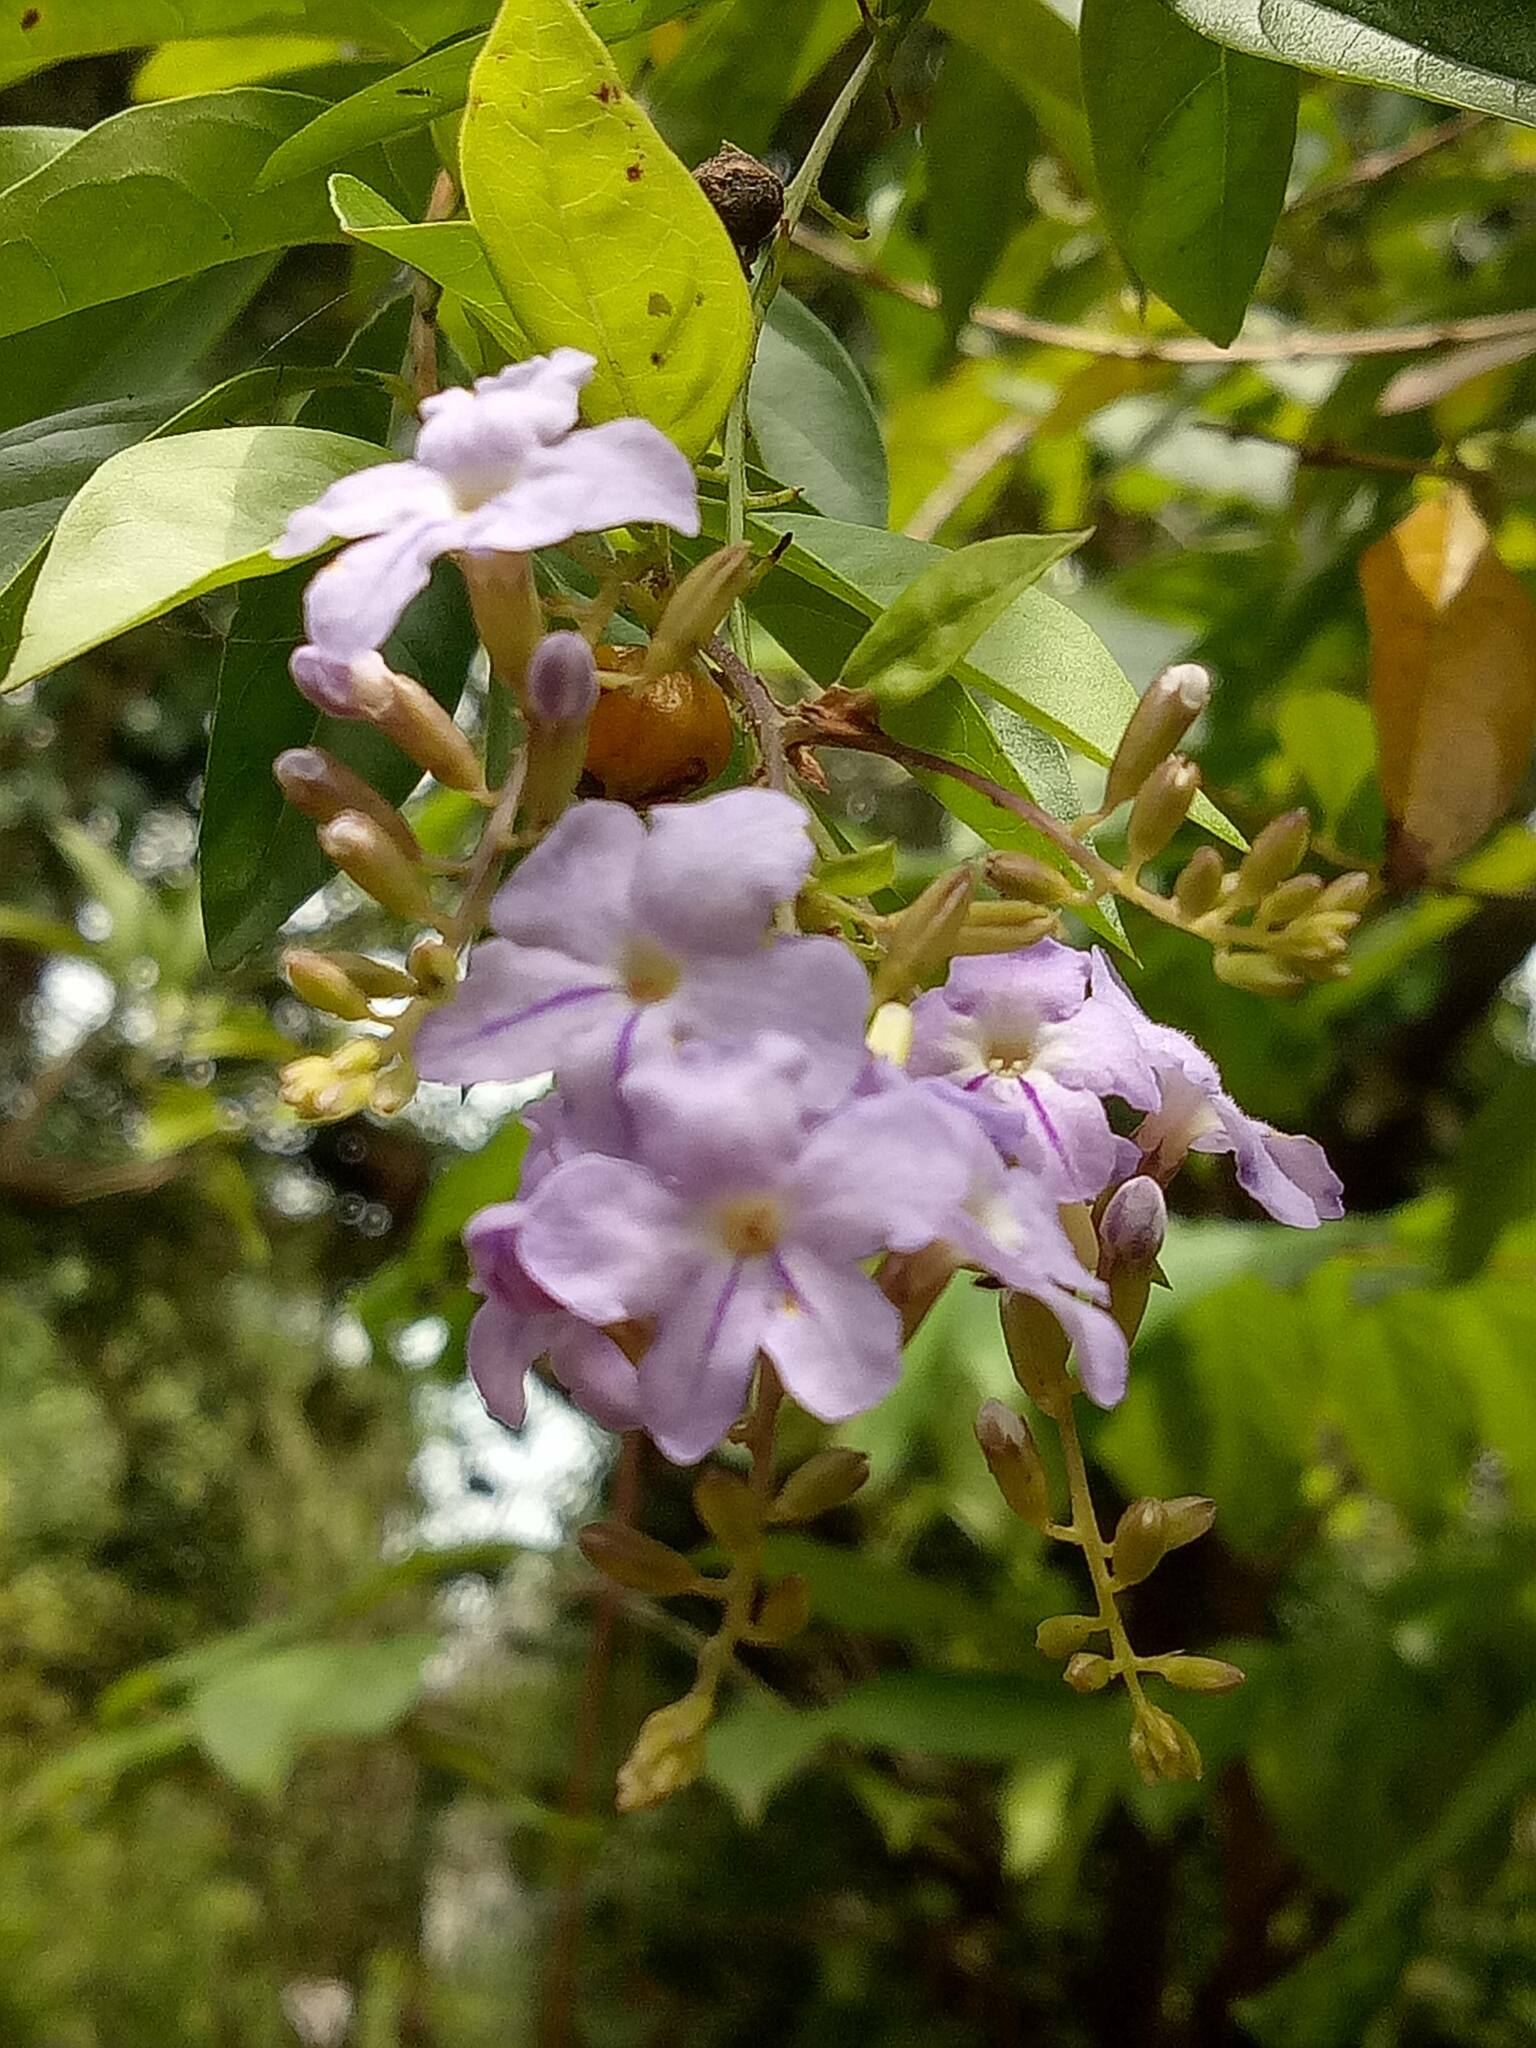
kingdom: Plantae
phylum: Tracheophyta
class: Magnoliopsida
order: Lamiales
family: Verbenaceae
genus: Duranta
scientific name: Duranta erecta
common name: Golden dewdrops
